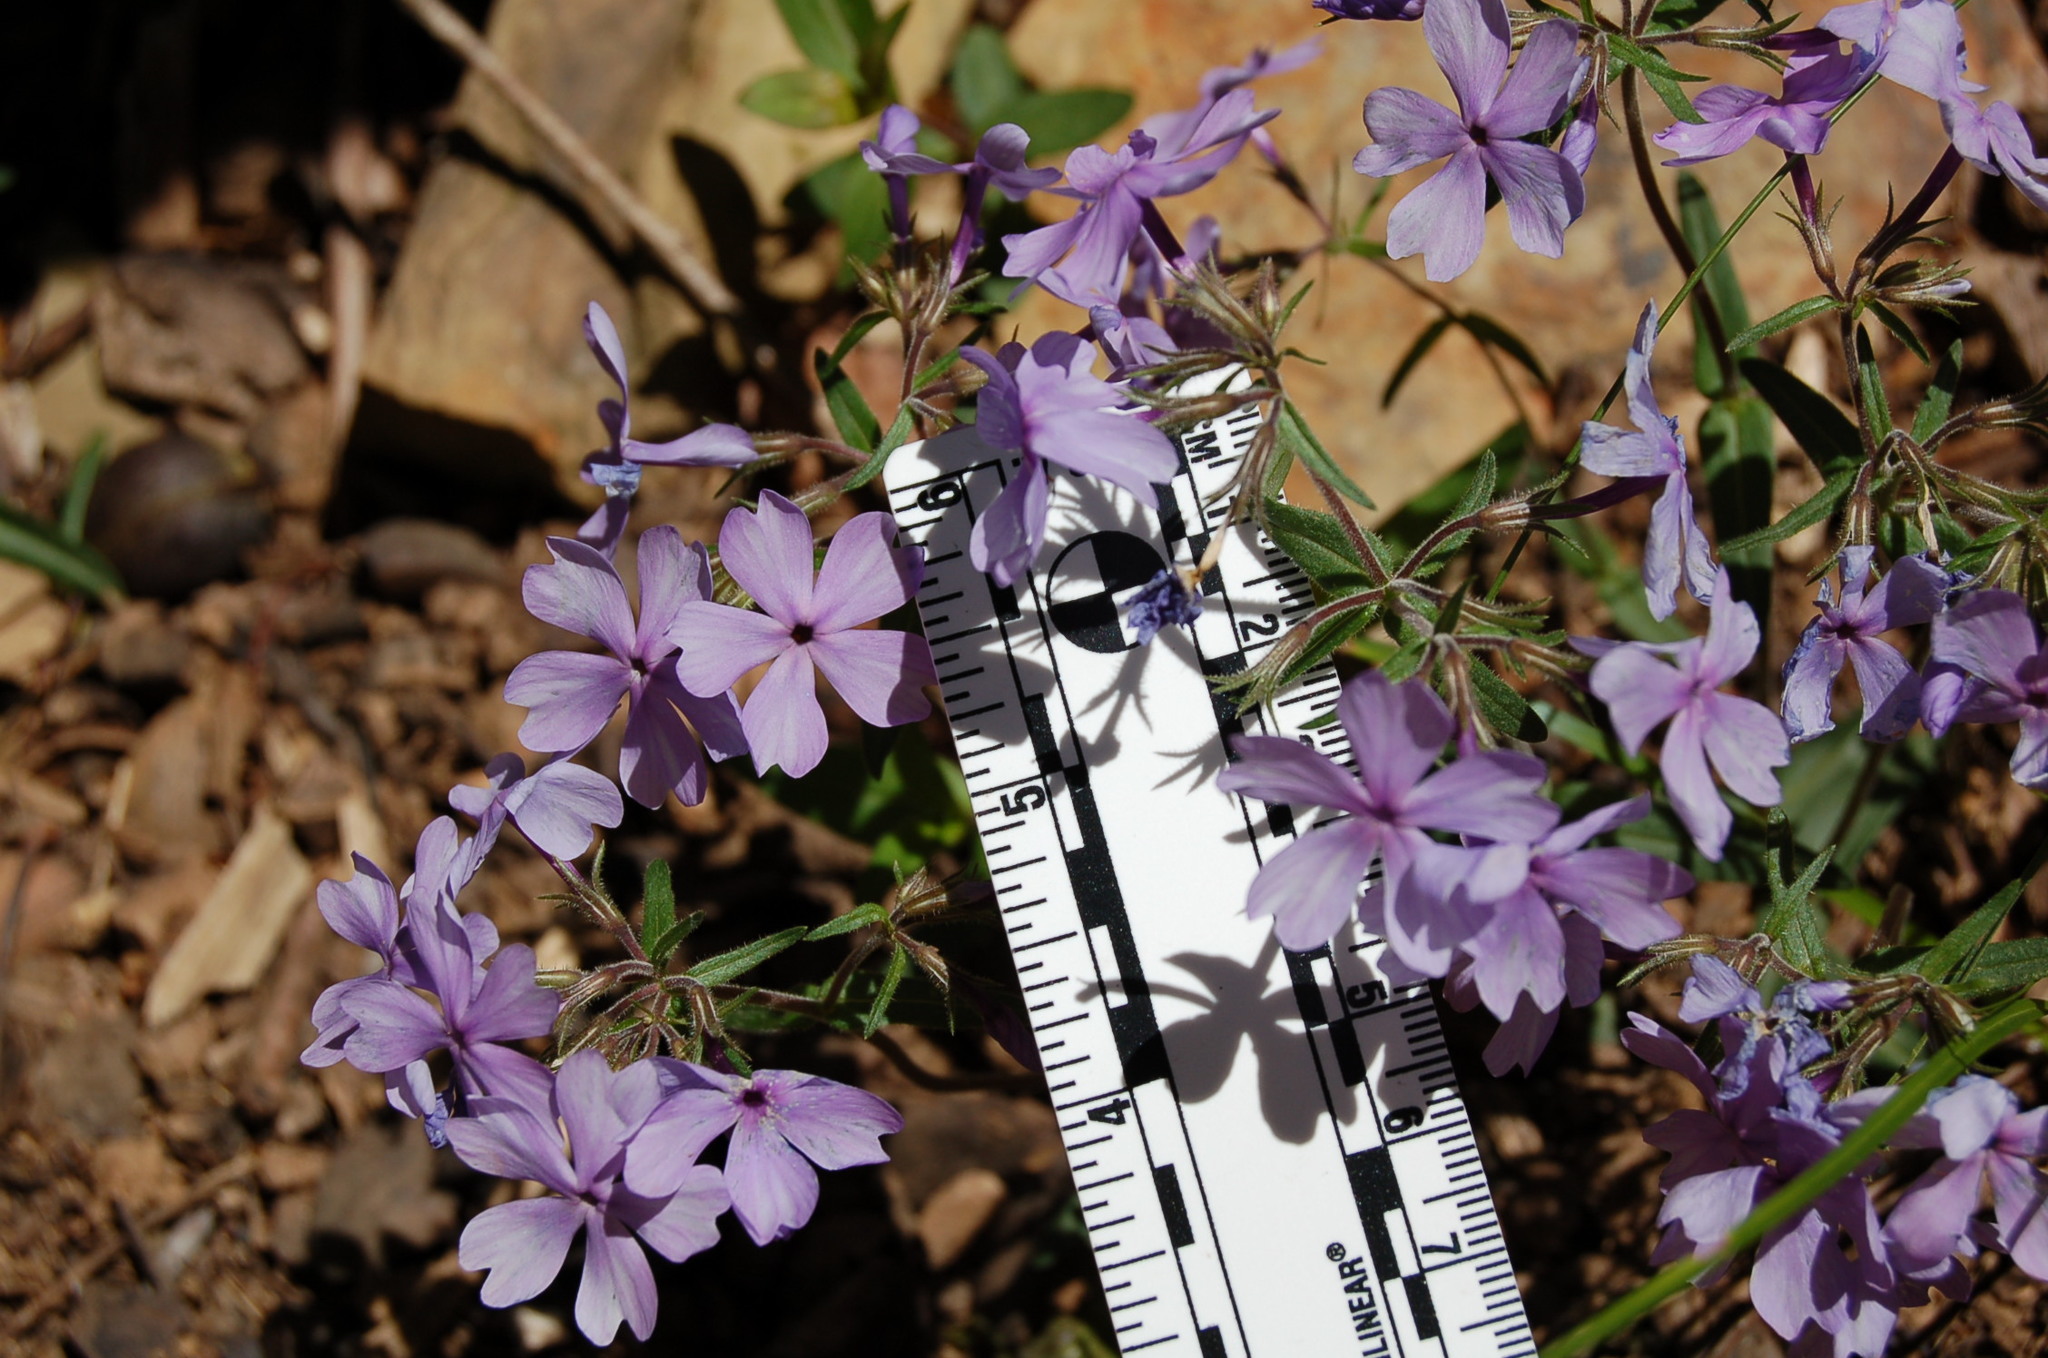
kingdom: Plantae
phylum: Tracheophyta
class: Magnoliopsida
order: Ericales
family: Polemoniaceae
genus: Phlox
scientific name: Phlox divaricata
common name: Blue phlox
